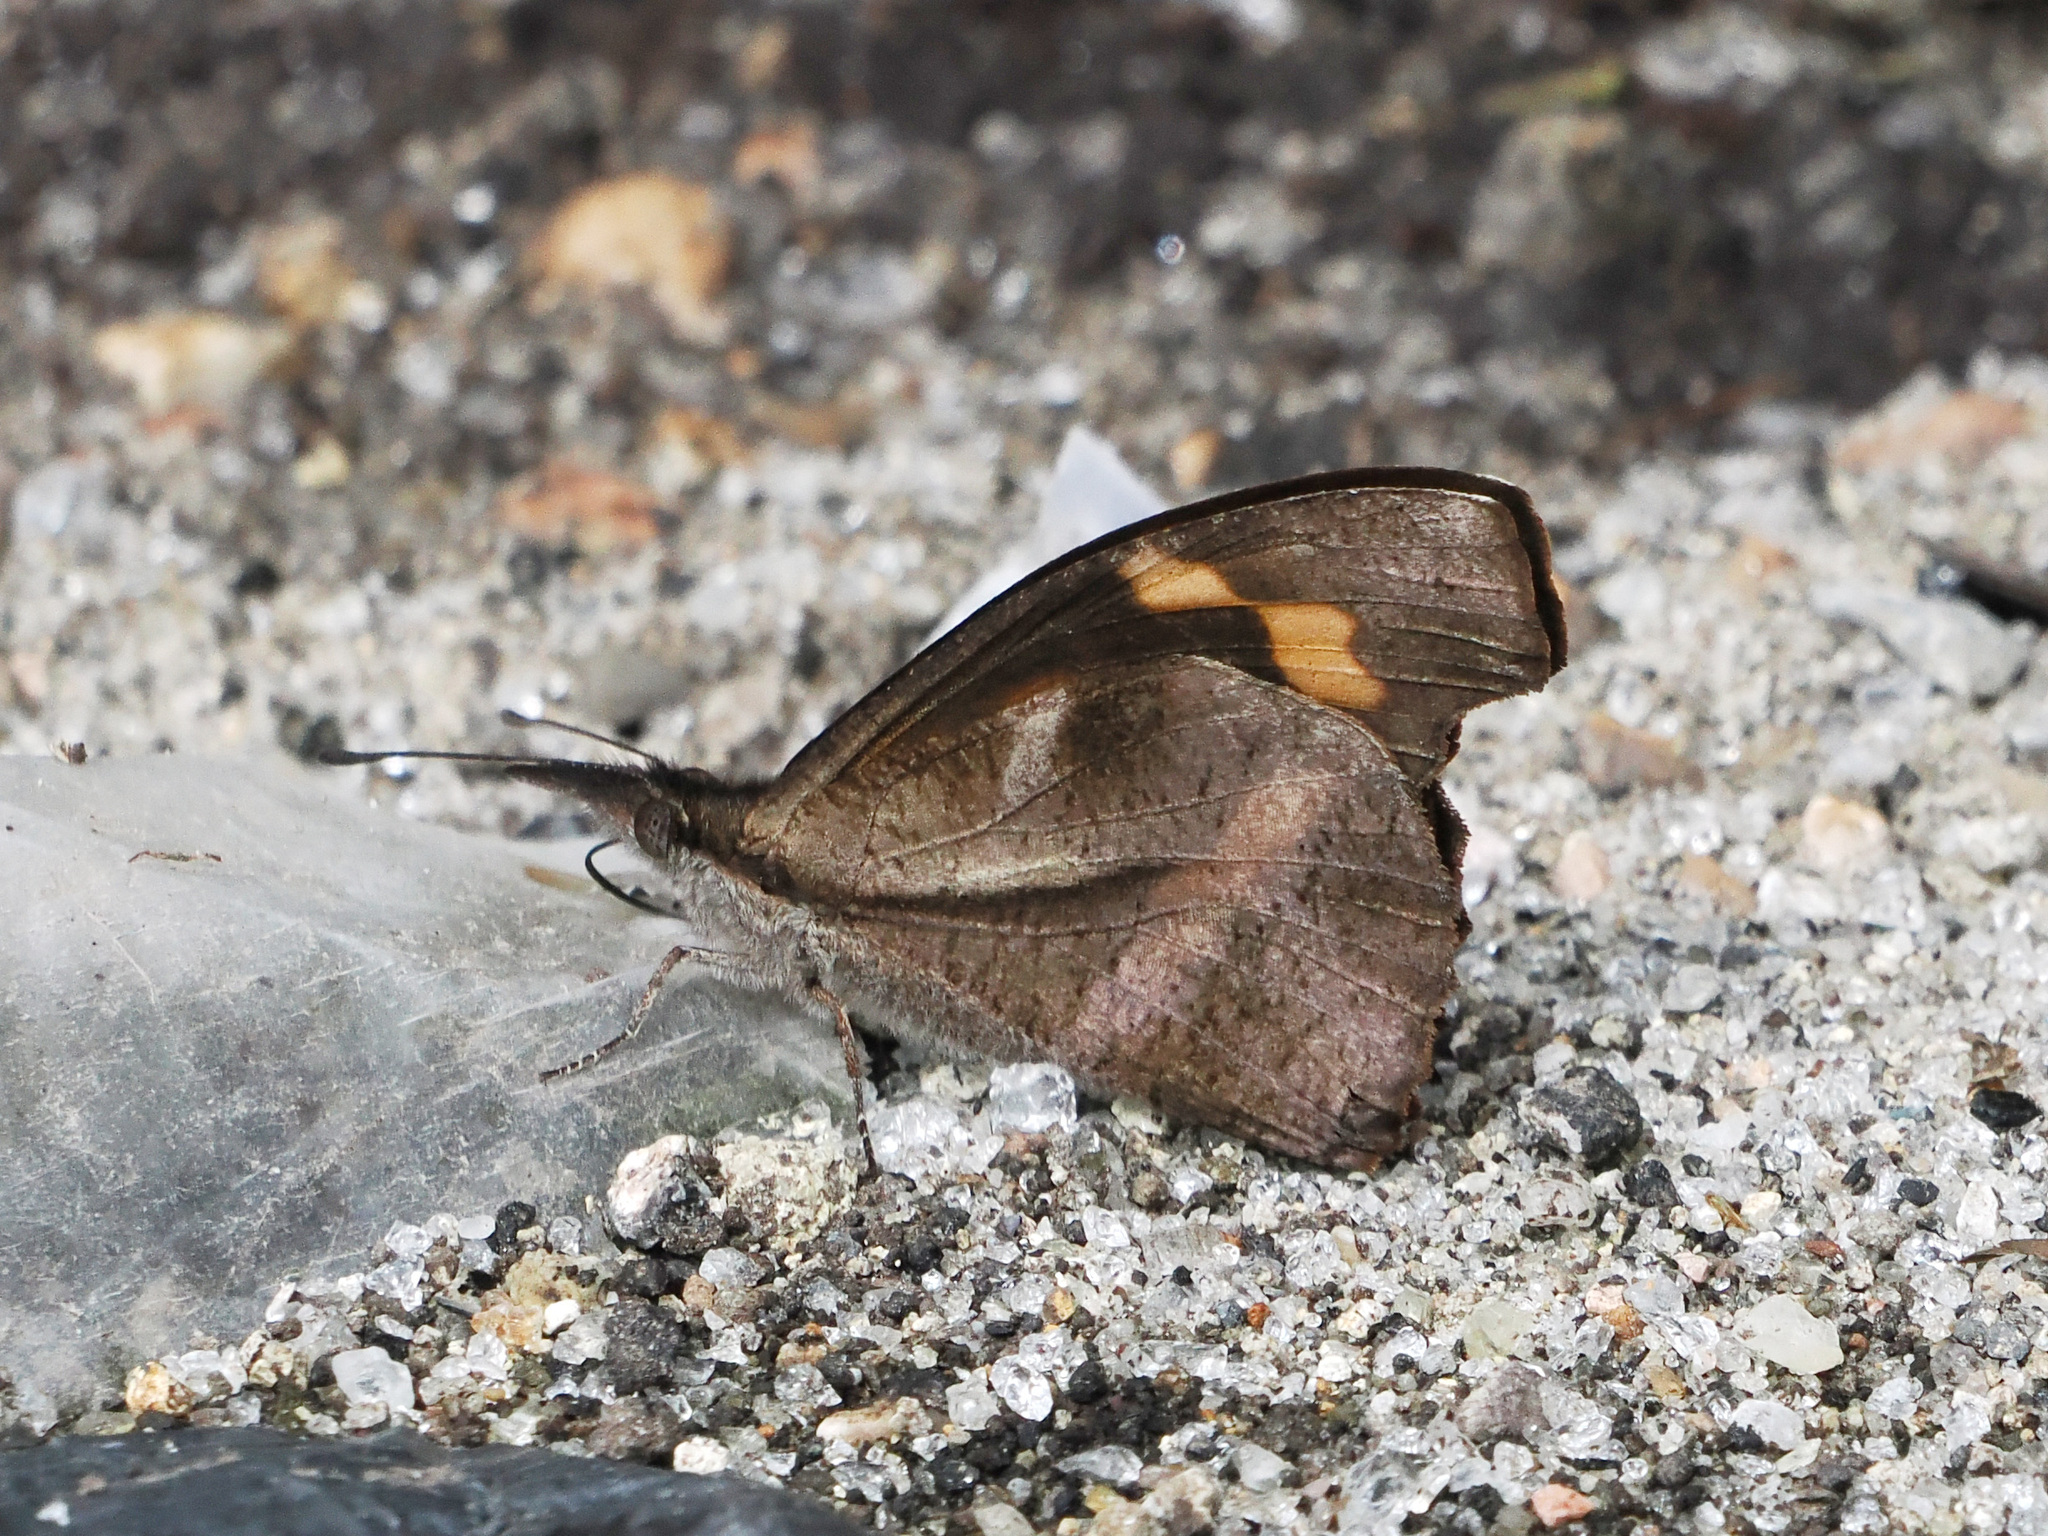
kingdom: Animalia
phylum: Arthropoda
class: Insecta
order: Lepidoptera
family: Nymphalidae
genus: Libythea
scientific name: Libythea myrrha
